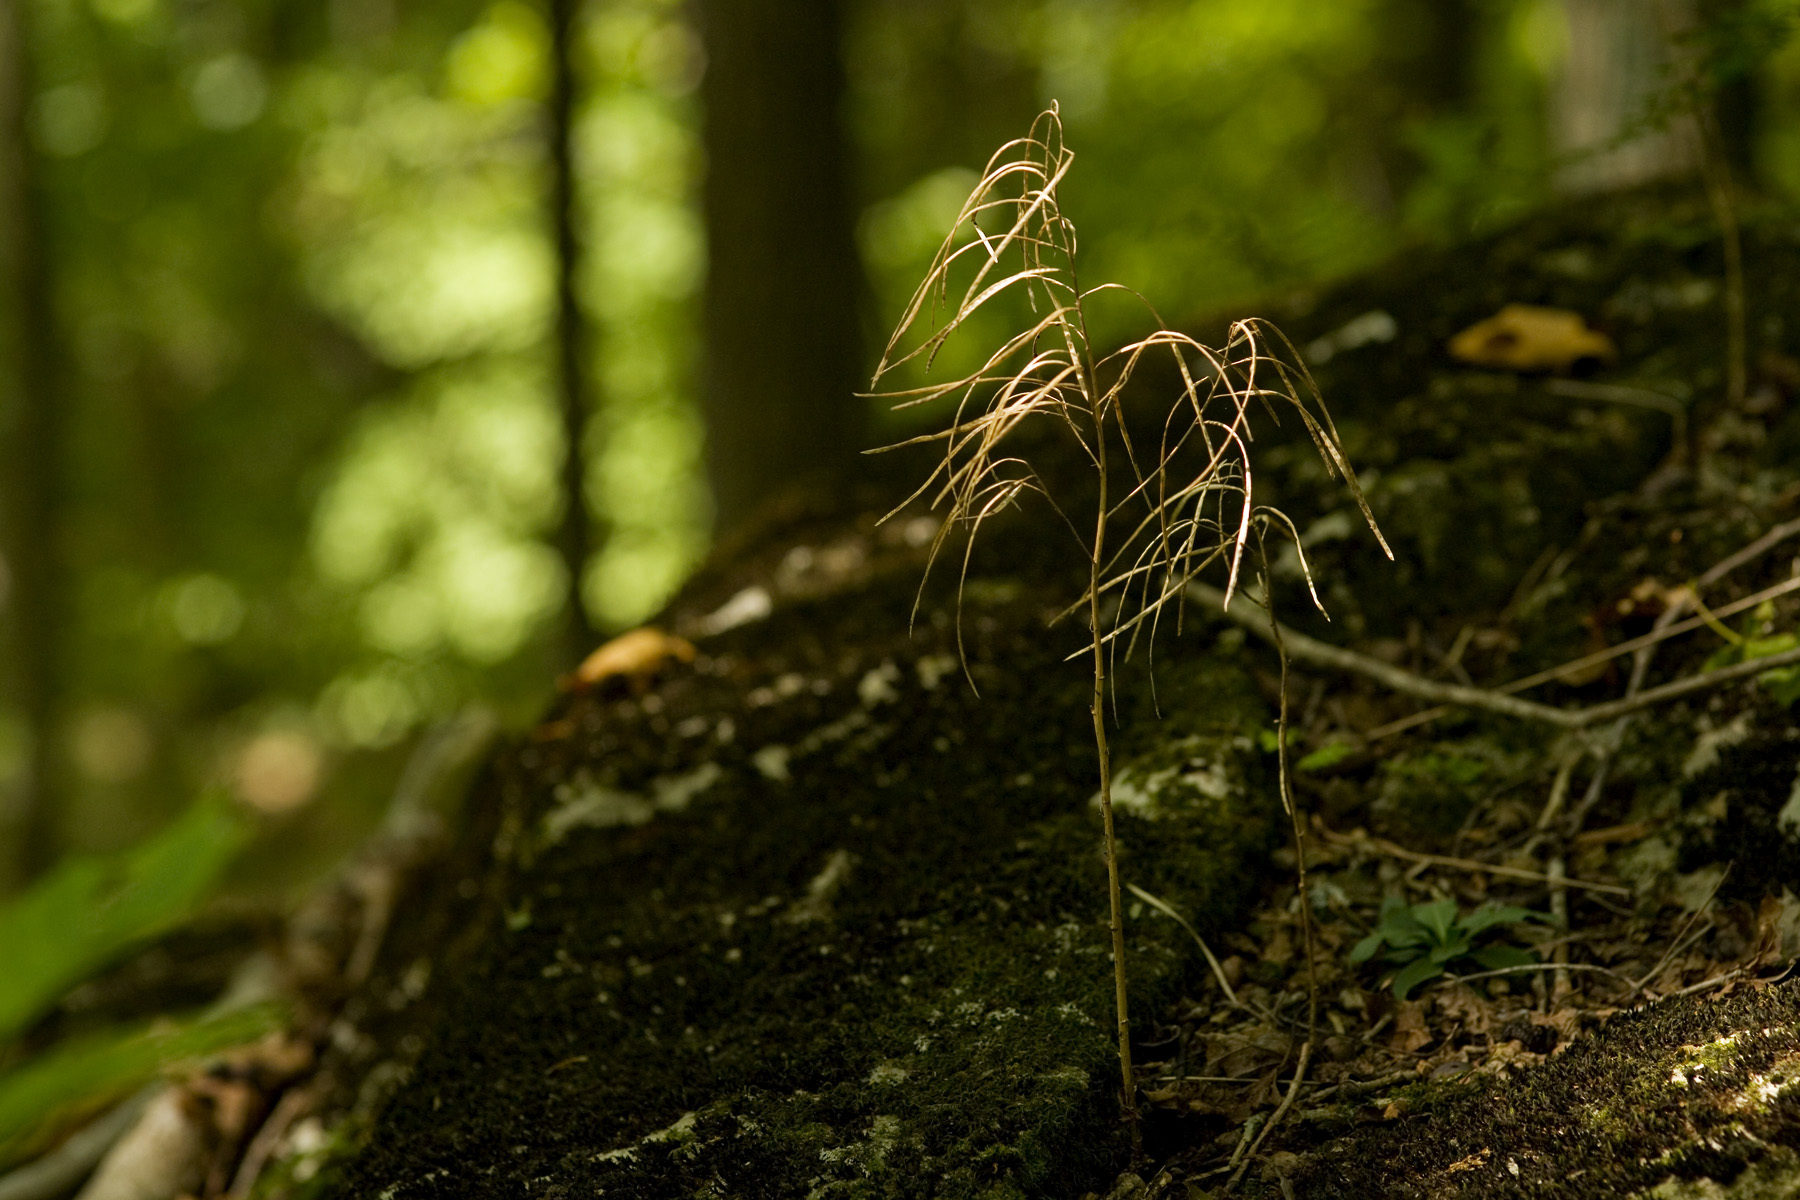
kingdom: Plantae
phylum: Tracheophyta
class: Magnoliopsida
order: Brassicales
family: Brassicaceae
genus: Borodinia
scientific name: Borodinia laevigata
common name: Smooth rockcress
